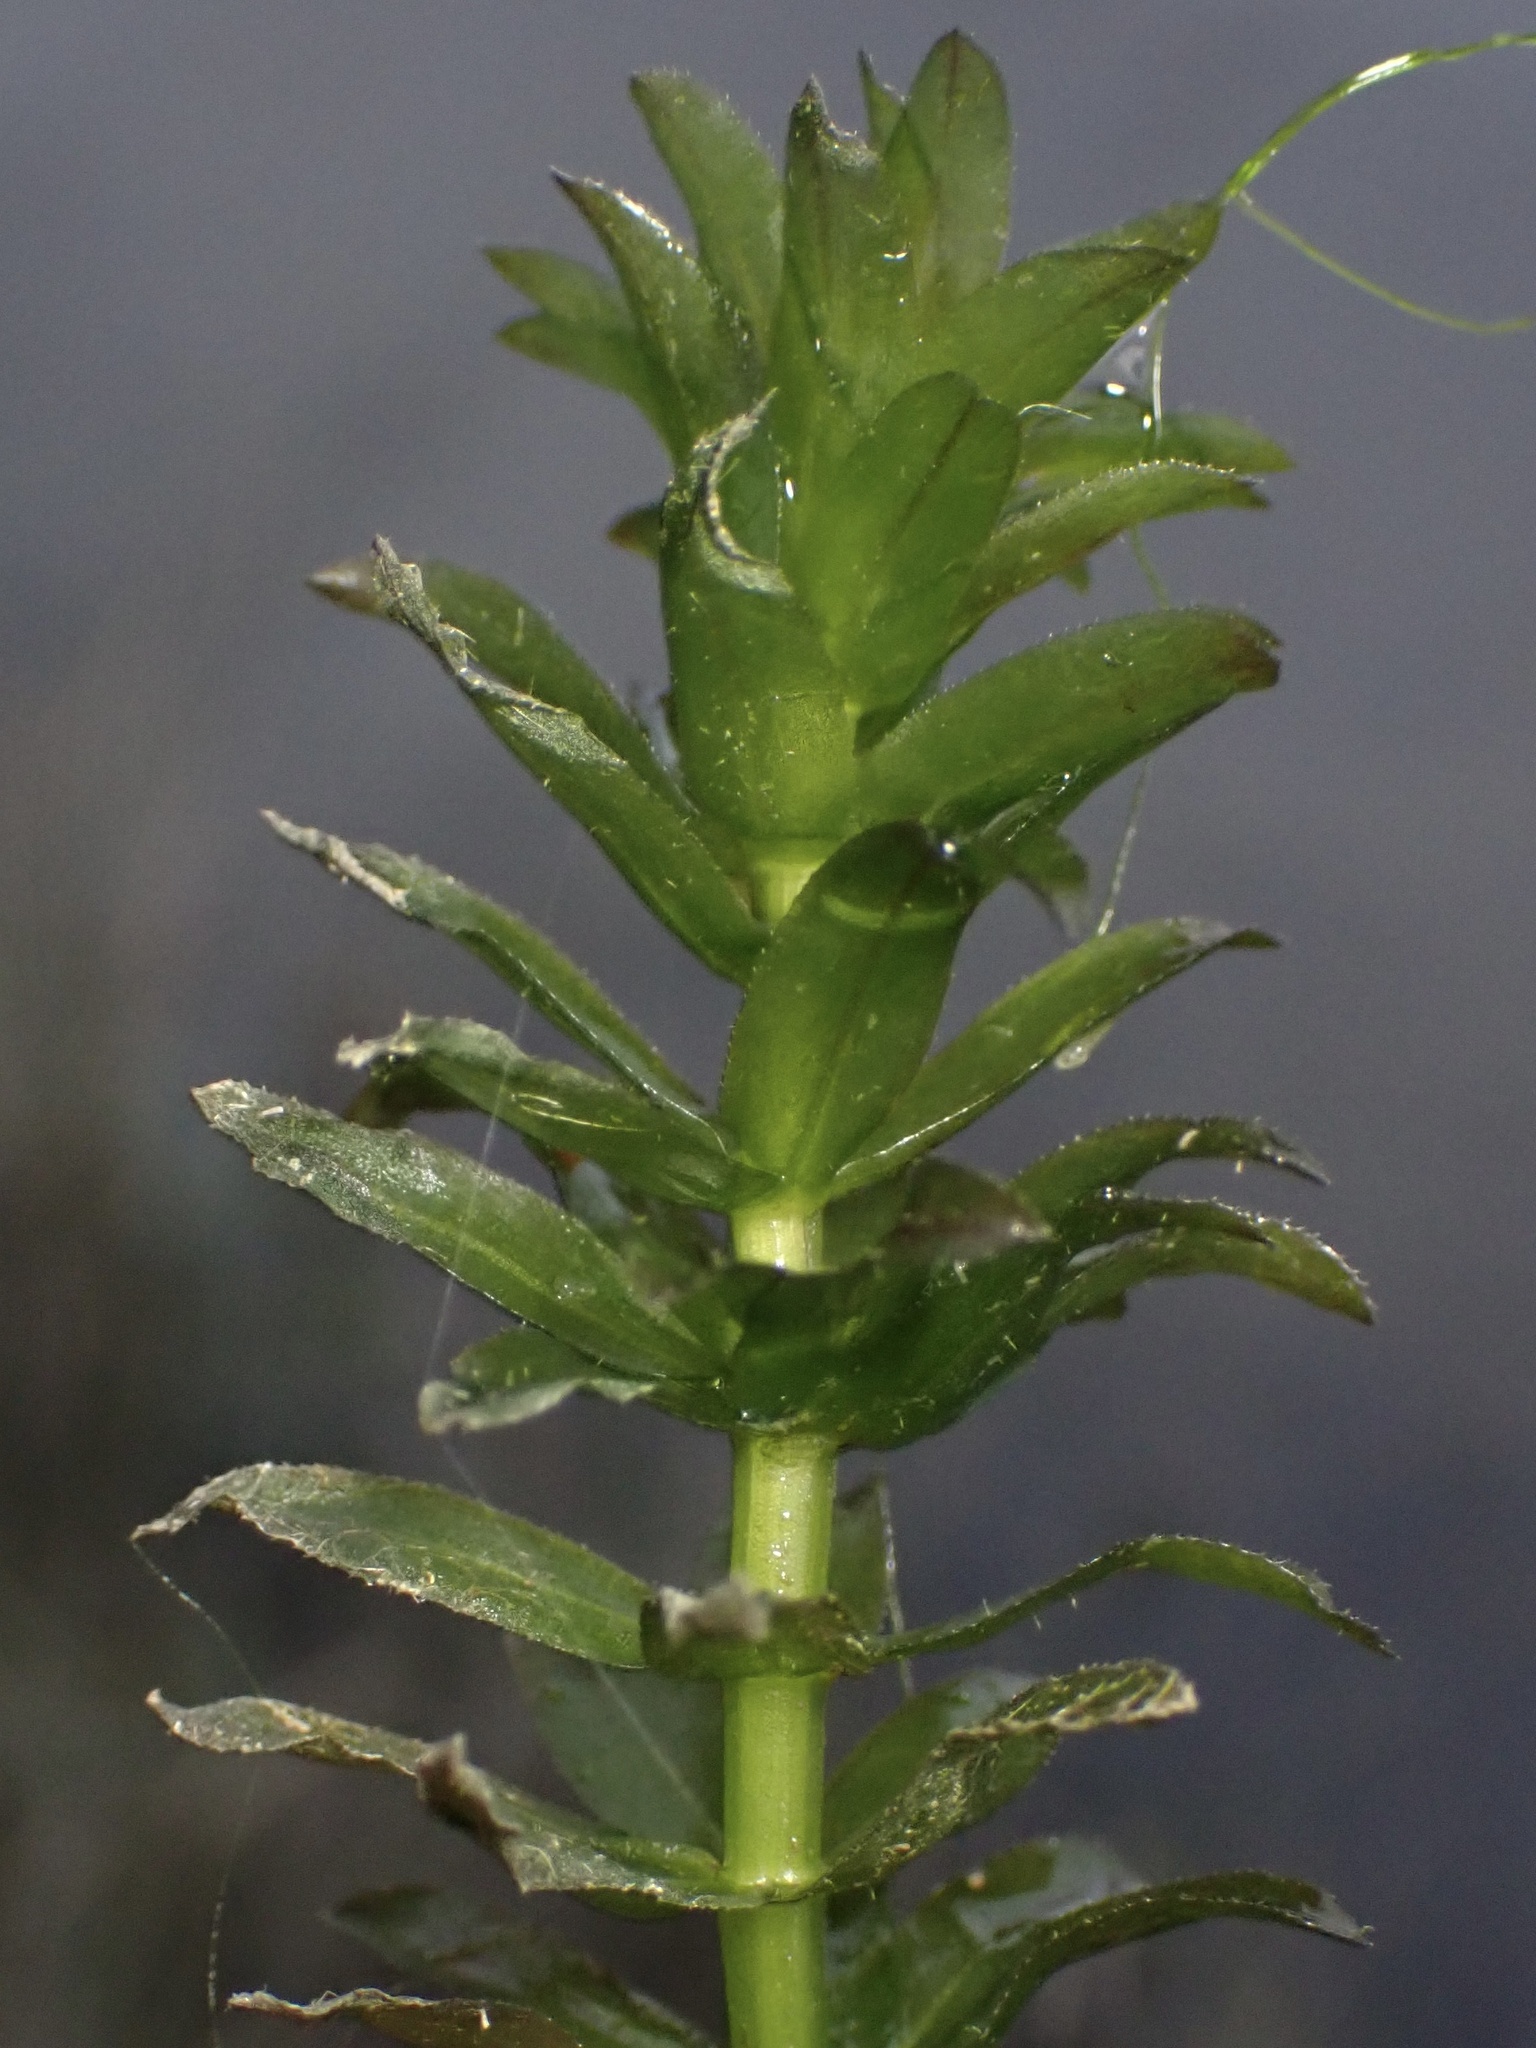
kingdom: Plantae
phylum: Tracheophyta
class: Liliopsida
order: Alismatales
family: Hydrocharitaceae
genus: Elodea
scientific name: Elodea densa
